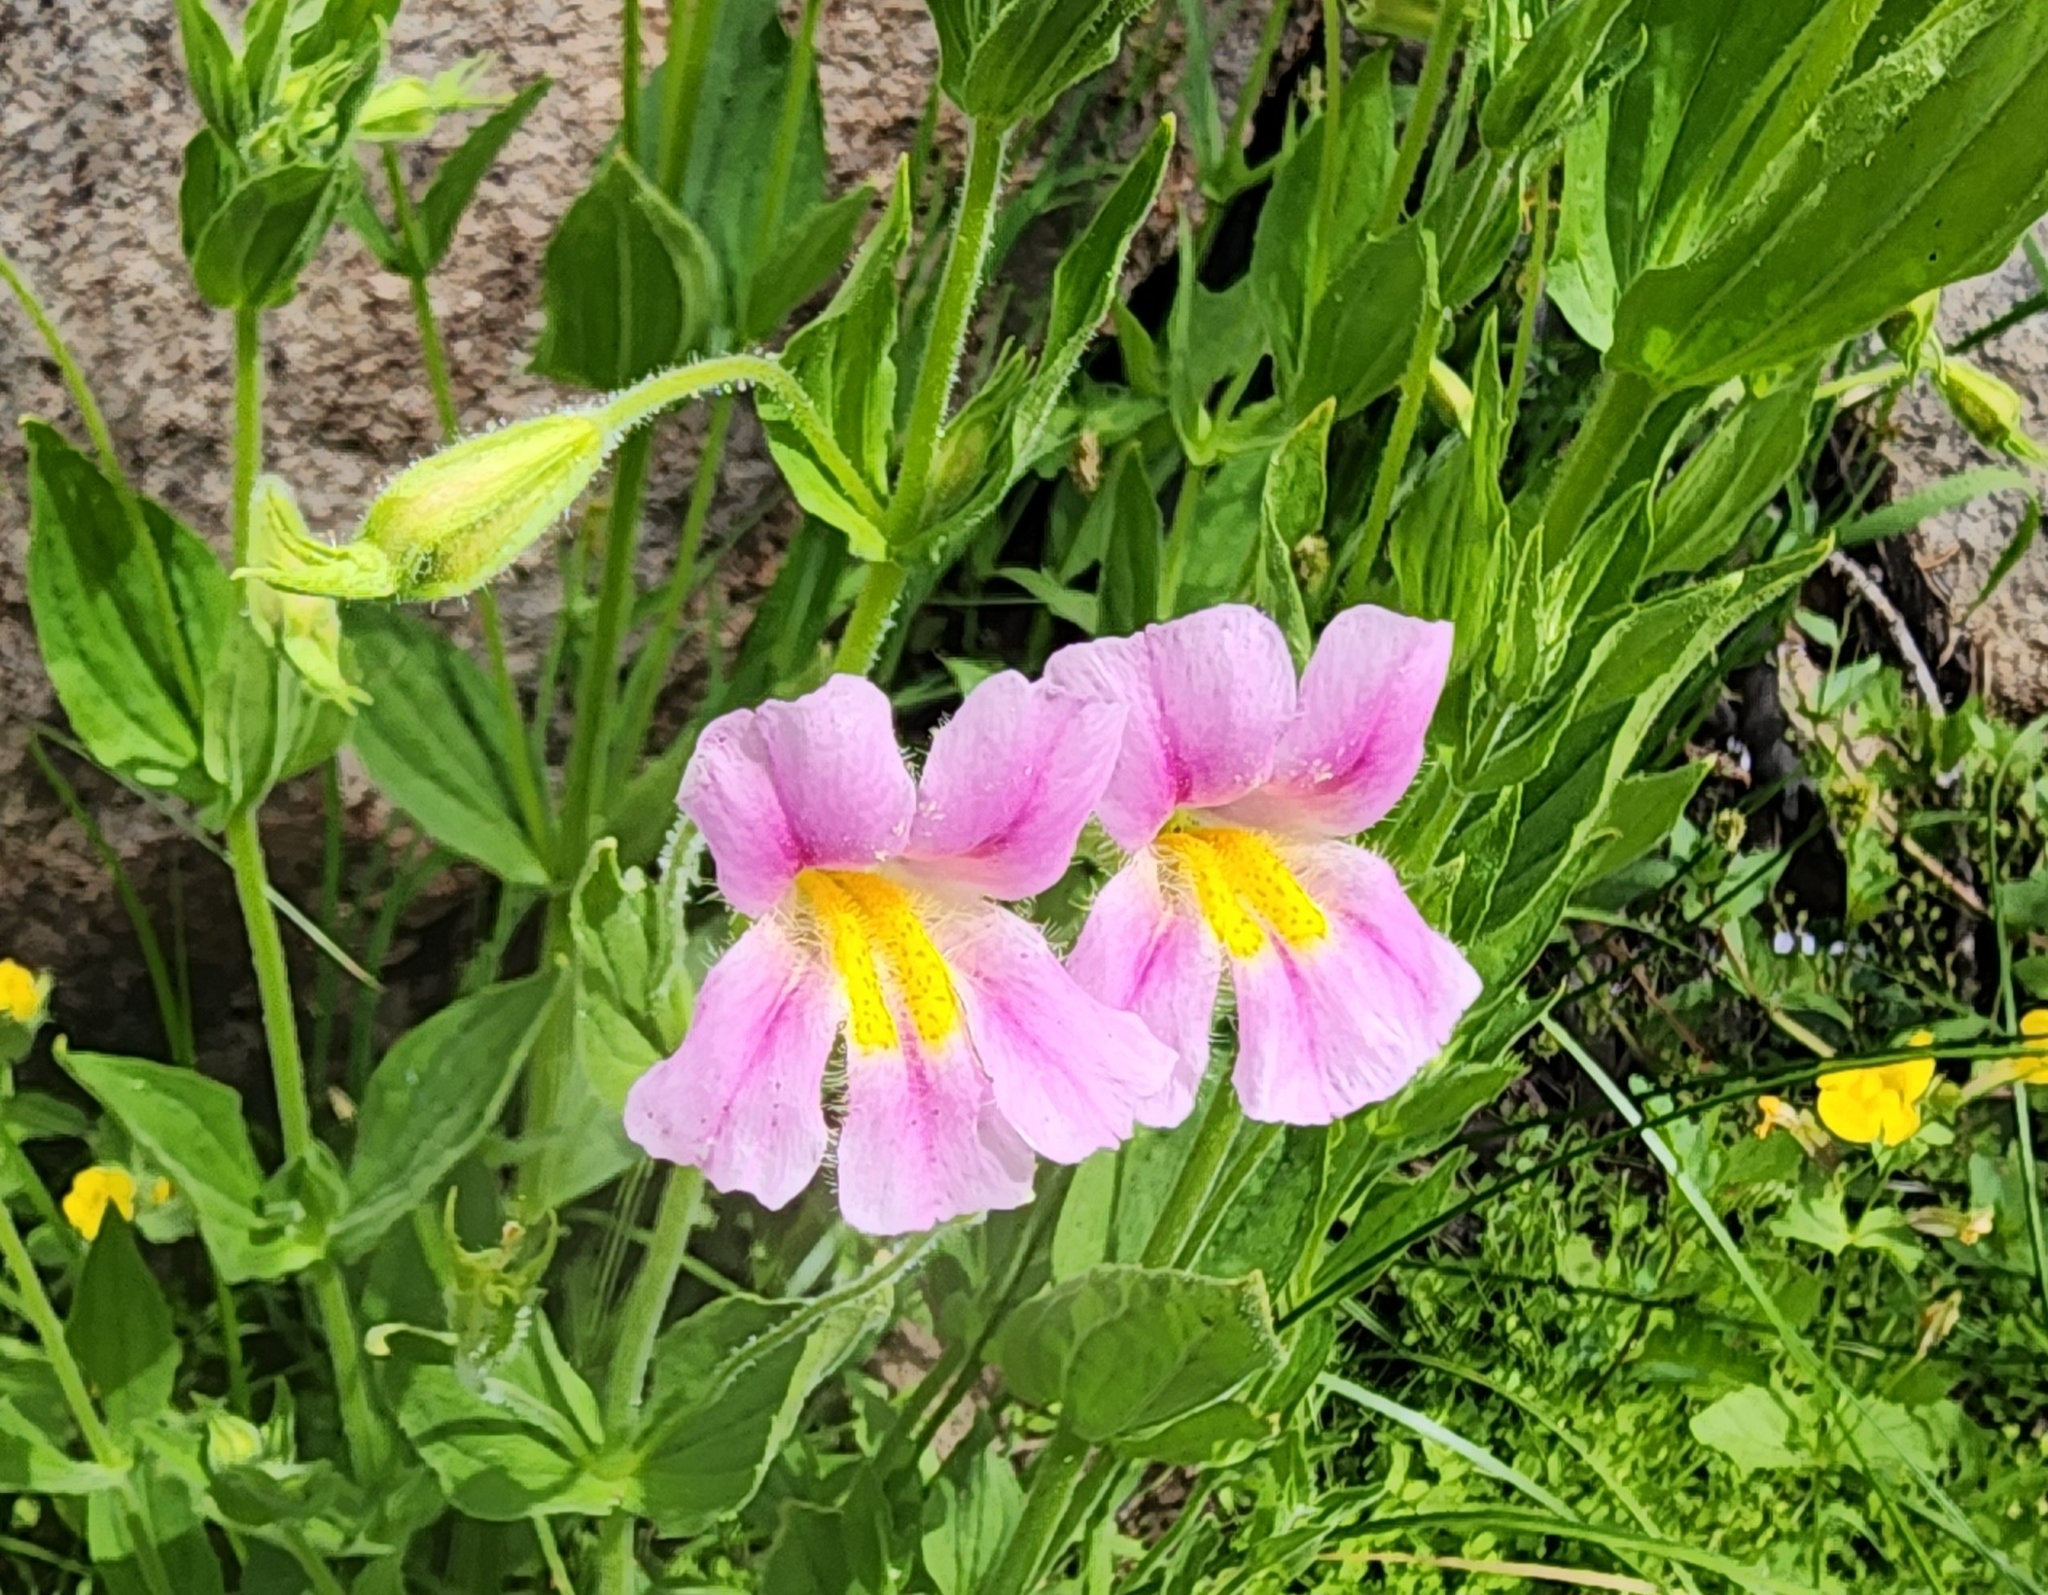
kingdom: Plantae
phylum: Tracheophyta
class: Magnoliopsida
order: Lamiales
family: Phrymaceae
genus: Erythranthe
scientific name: Erythranthe erubescens
